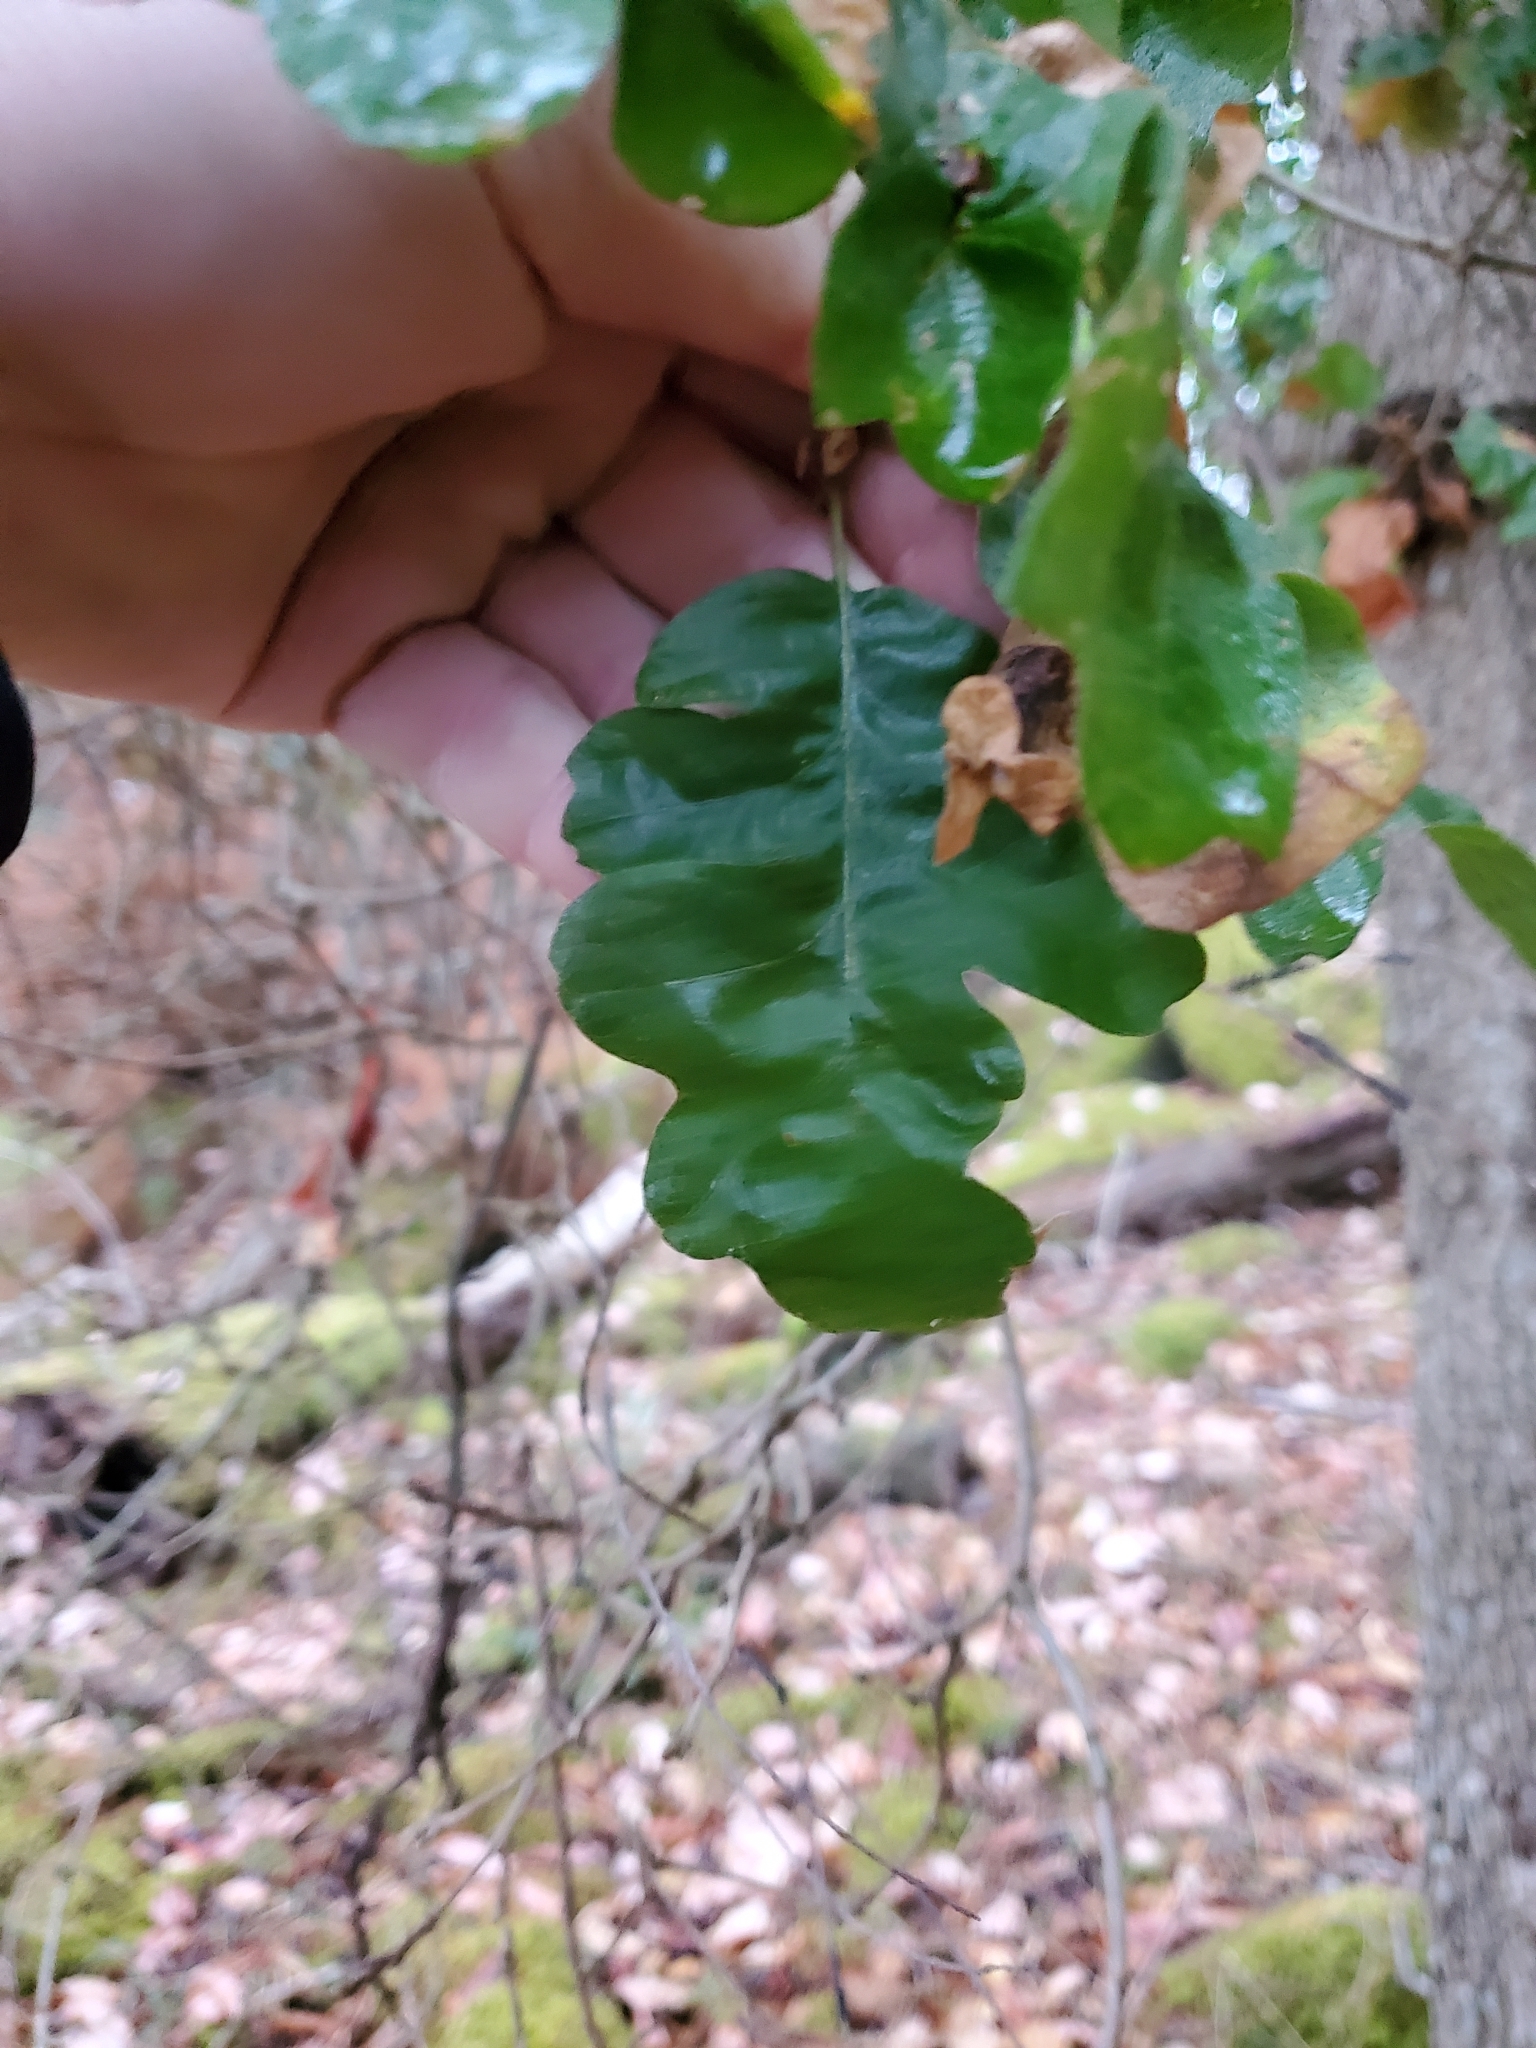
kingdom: Plantae
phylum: Tracheophyta
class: Magnoliopsida
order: Fagales
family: Fagaceae
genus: Quercus
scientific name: Quercus garryana
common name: Garry oak
